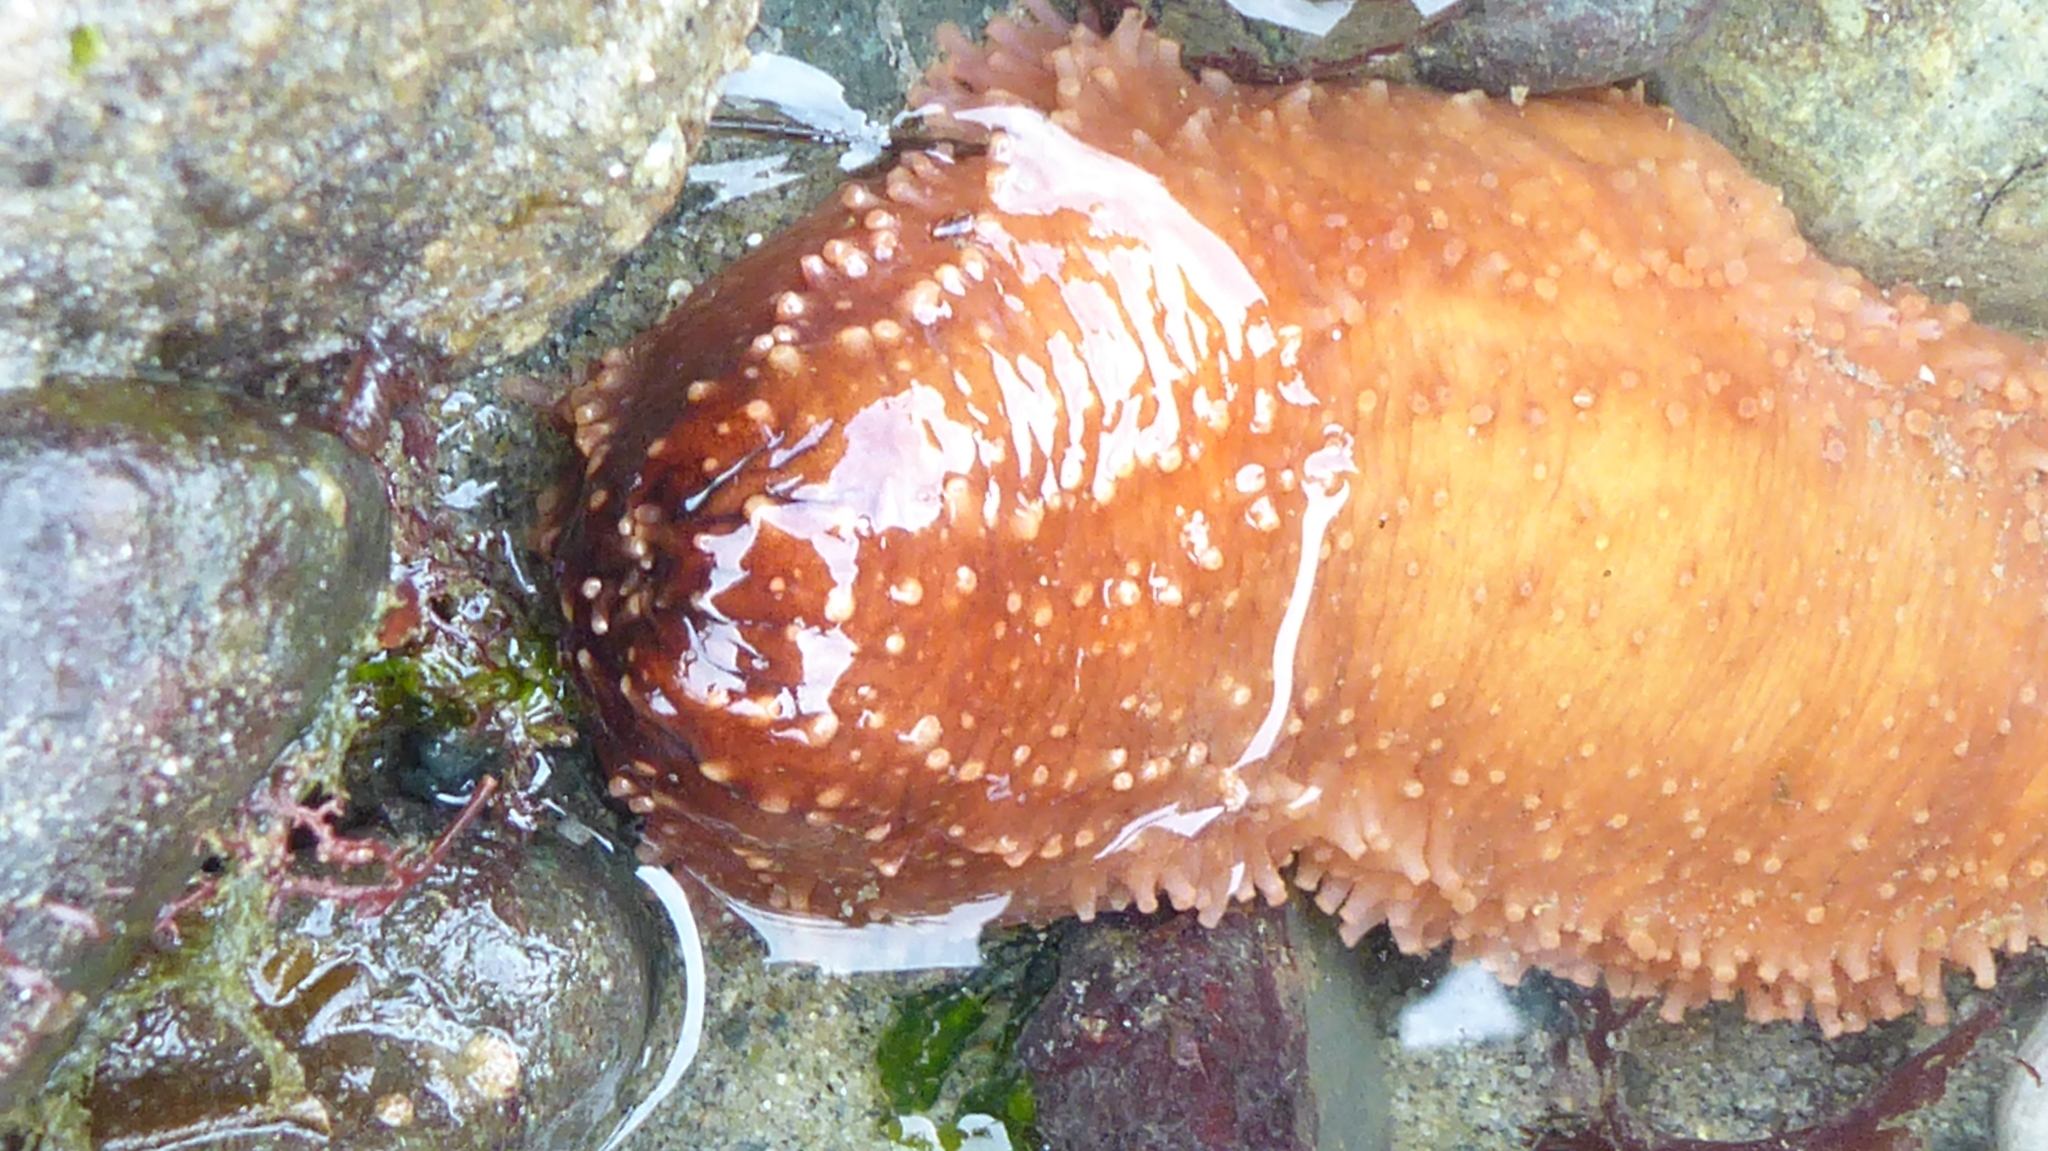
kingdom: Animalia
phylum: Echinodermata
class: Holothuroidea
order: Dendrochirotida
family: Cucumariidae
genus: Cucumaria
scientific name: Cucumaria miniata
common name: Orange sea cucumber
